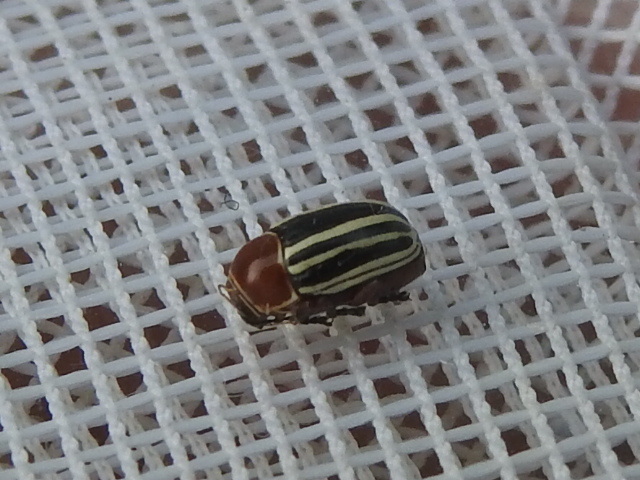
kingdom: Animalia
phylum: Arthropoda
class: Insecta
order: Coleoptera
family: Chrysomelidae
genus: Bassareus
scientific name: Bassareus lituratus
